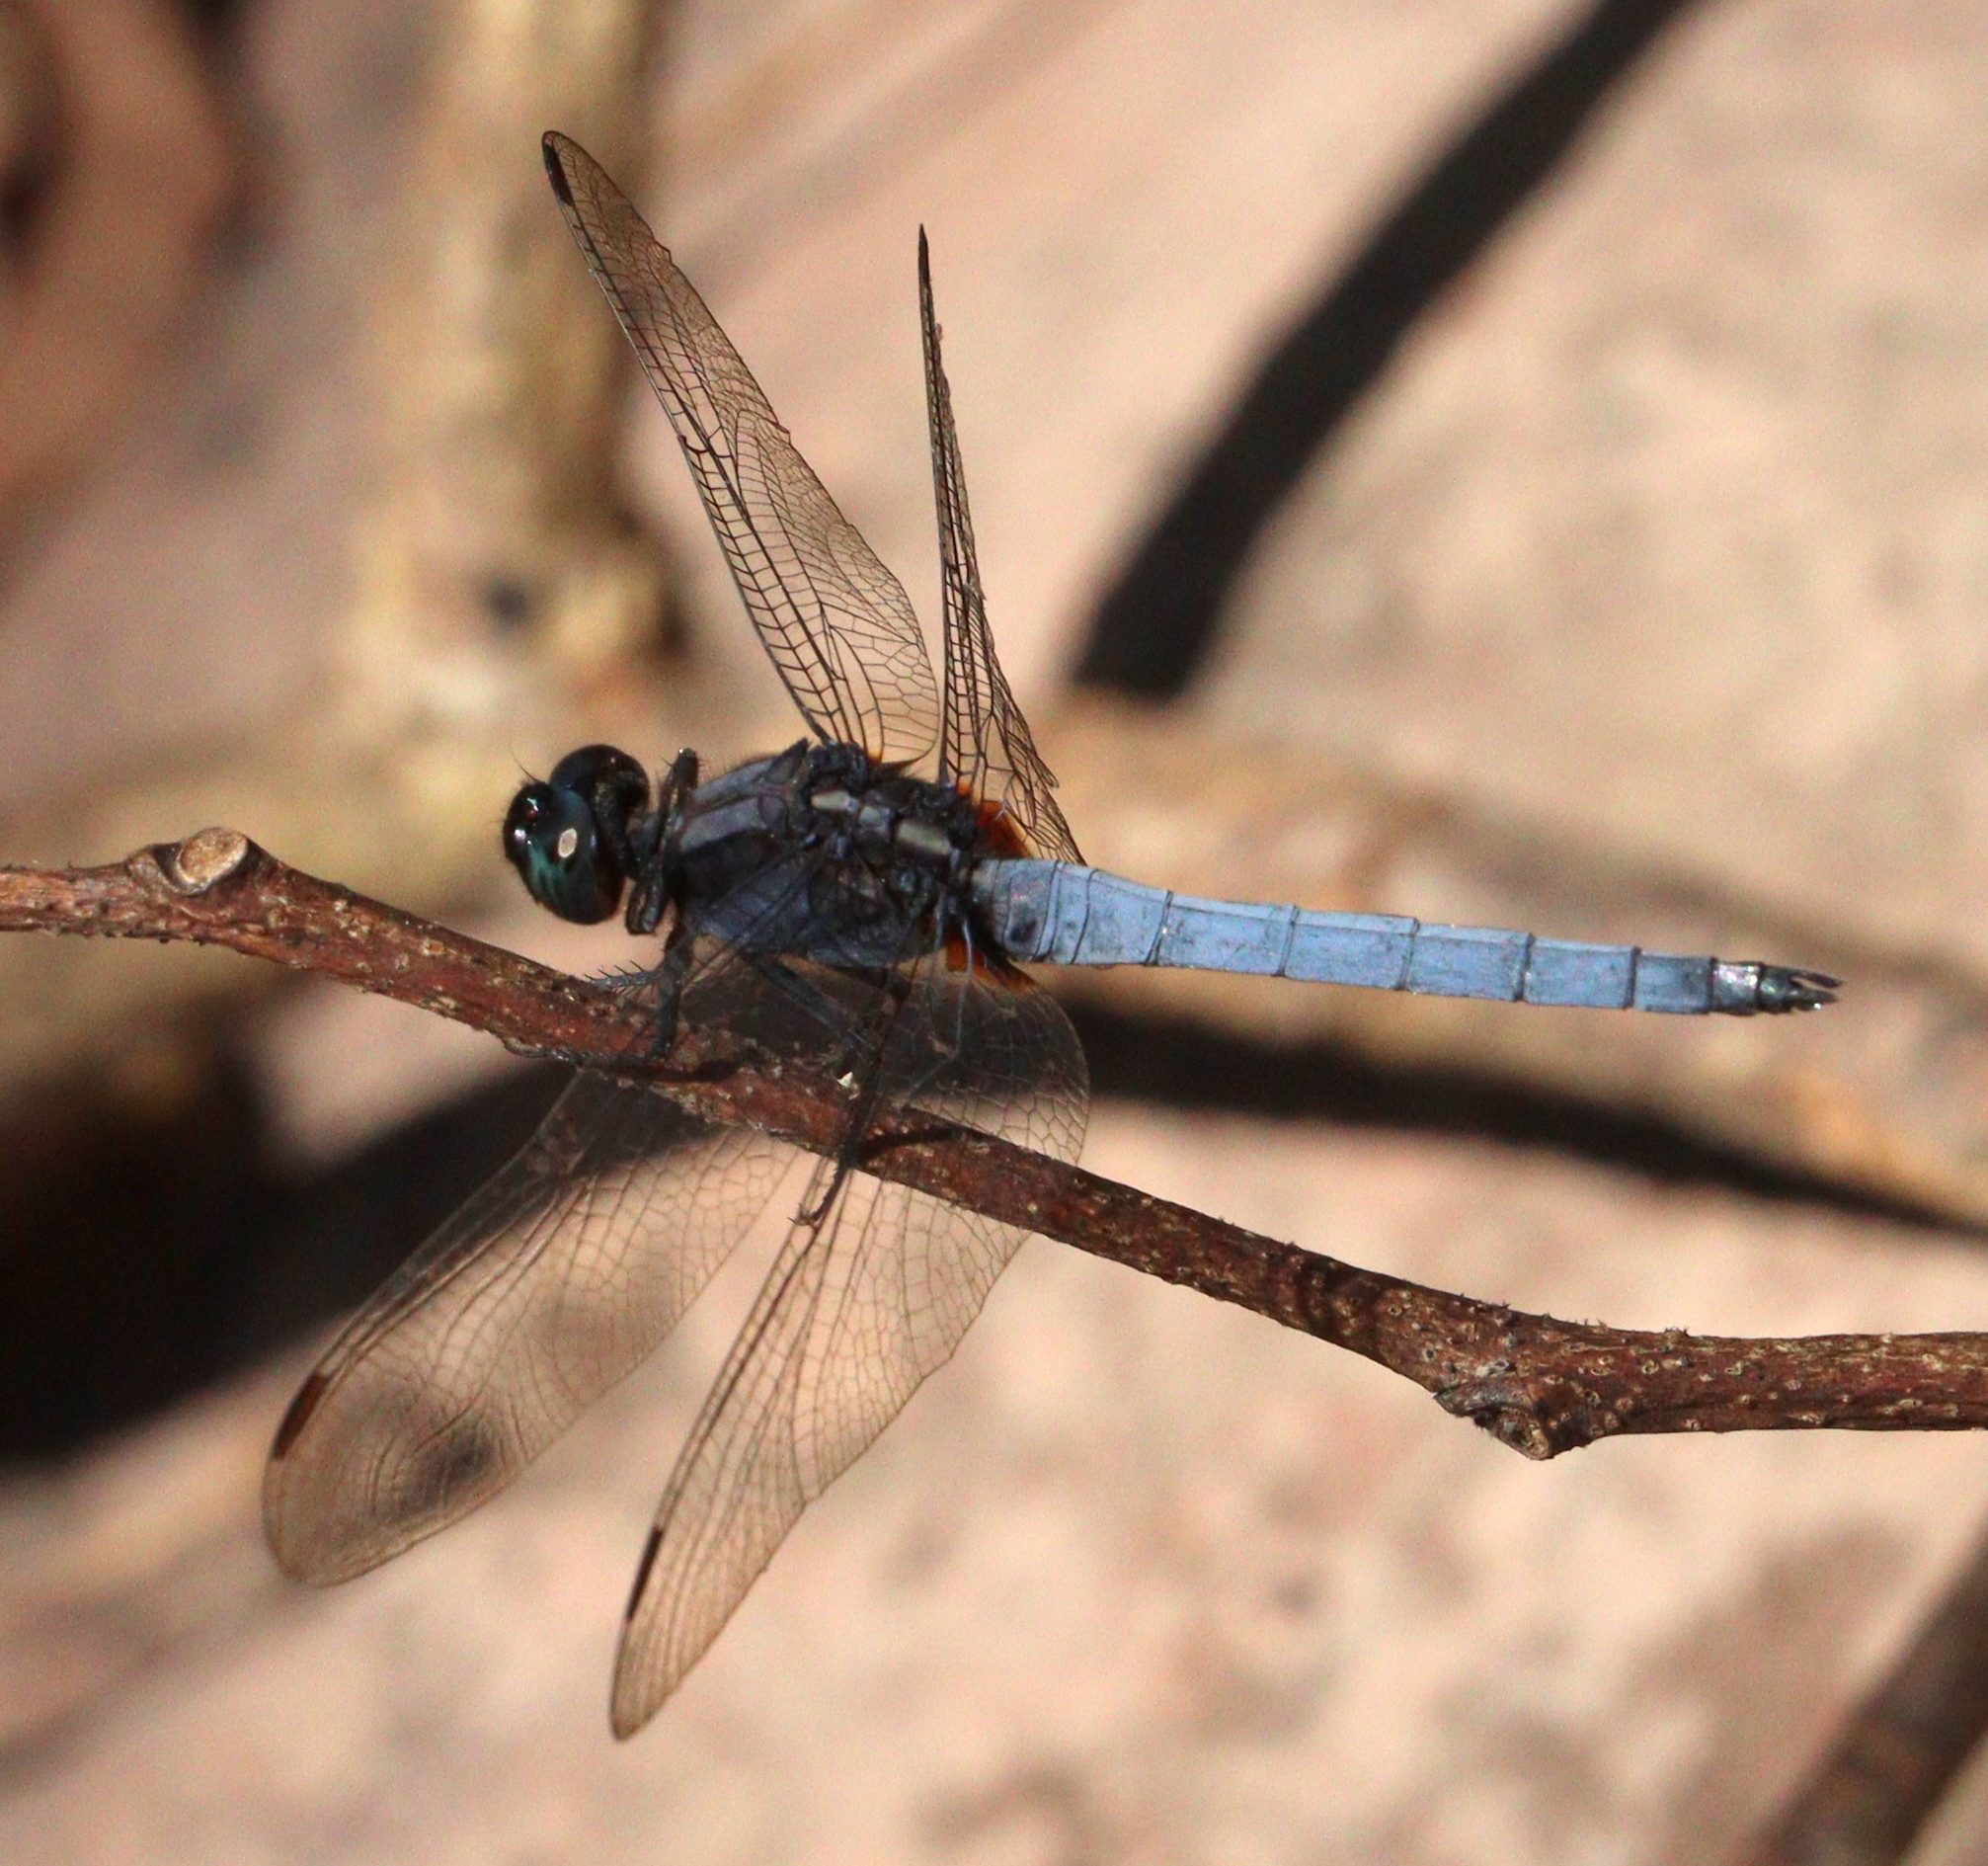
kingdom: Animalia
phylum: Arthropoda
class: Insecta
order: Odonata
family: Libellulidae
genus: Orthetrum
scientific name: Orthetrum glaucum
